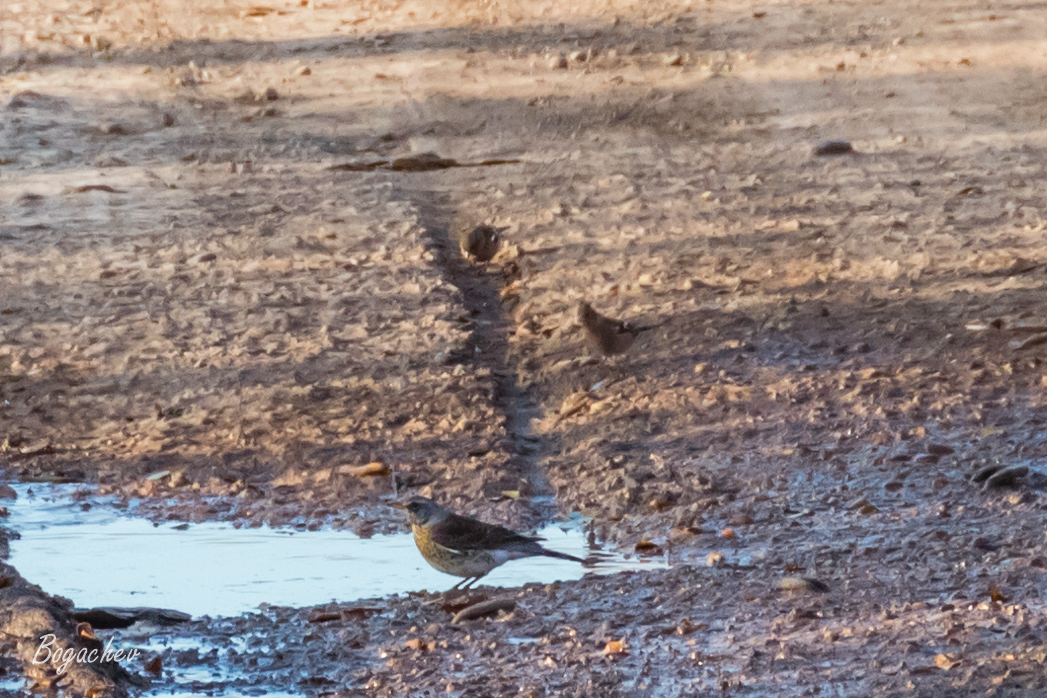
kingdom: Animalia
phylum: Chordata
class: Aves
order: Passeriformes
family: Turdidae
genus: Turdus
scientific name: Turdus pilaris
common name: Fieldfare
